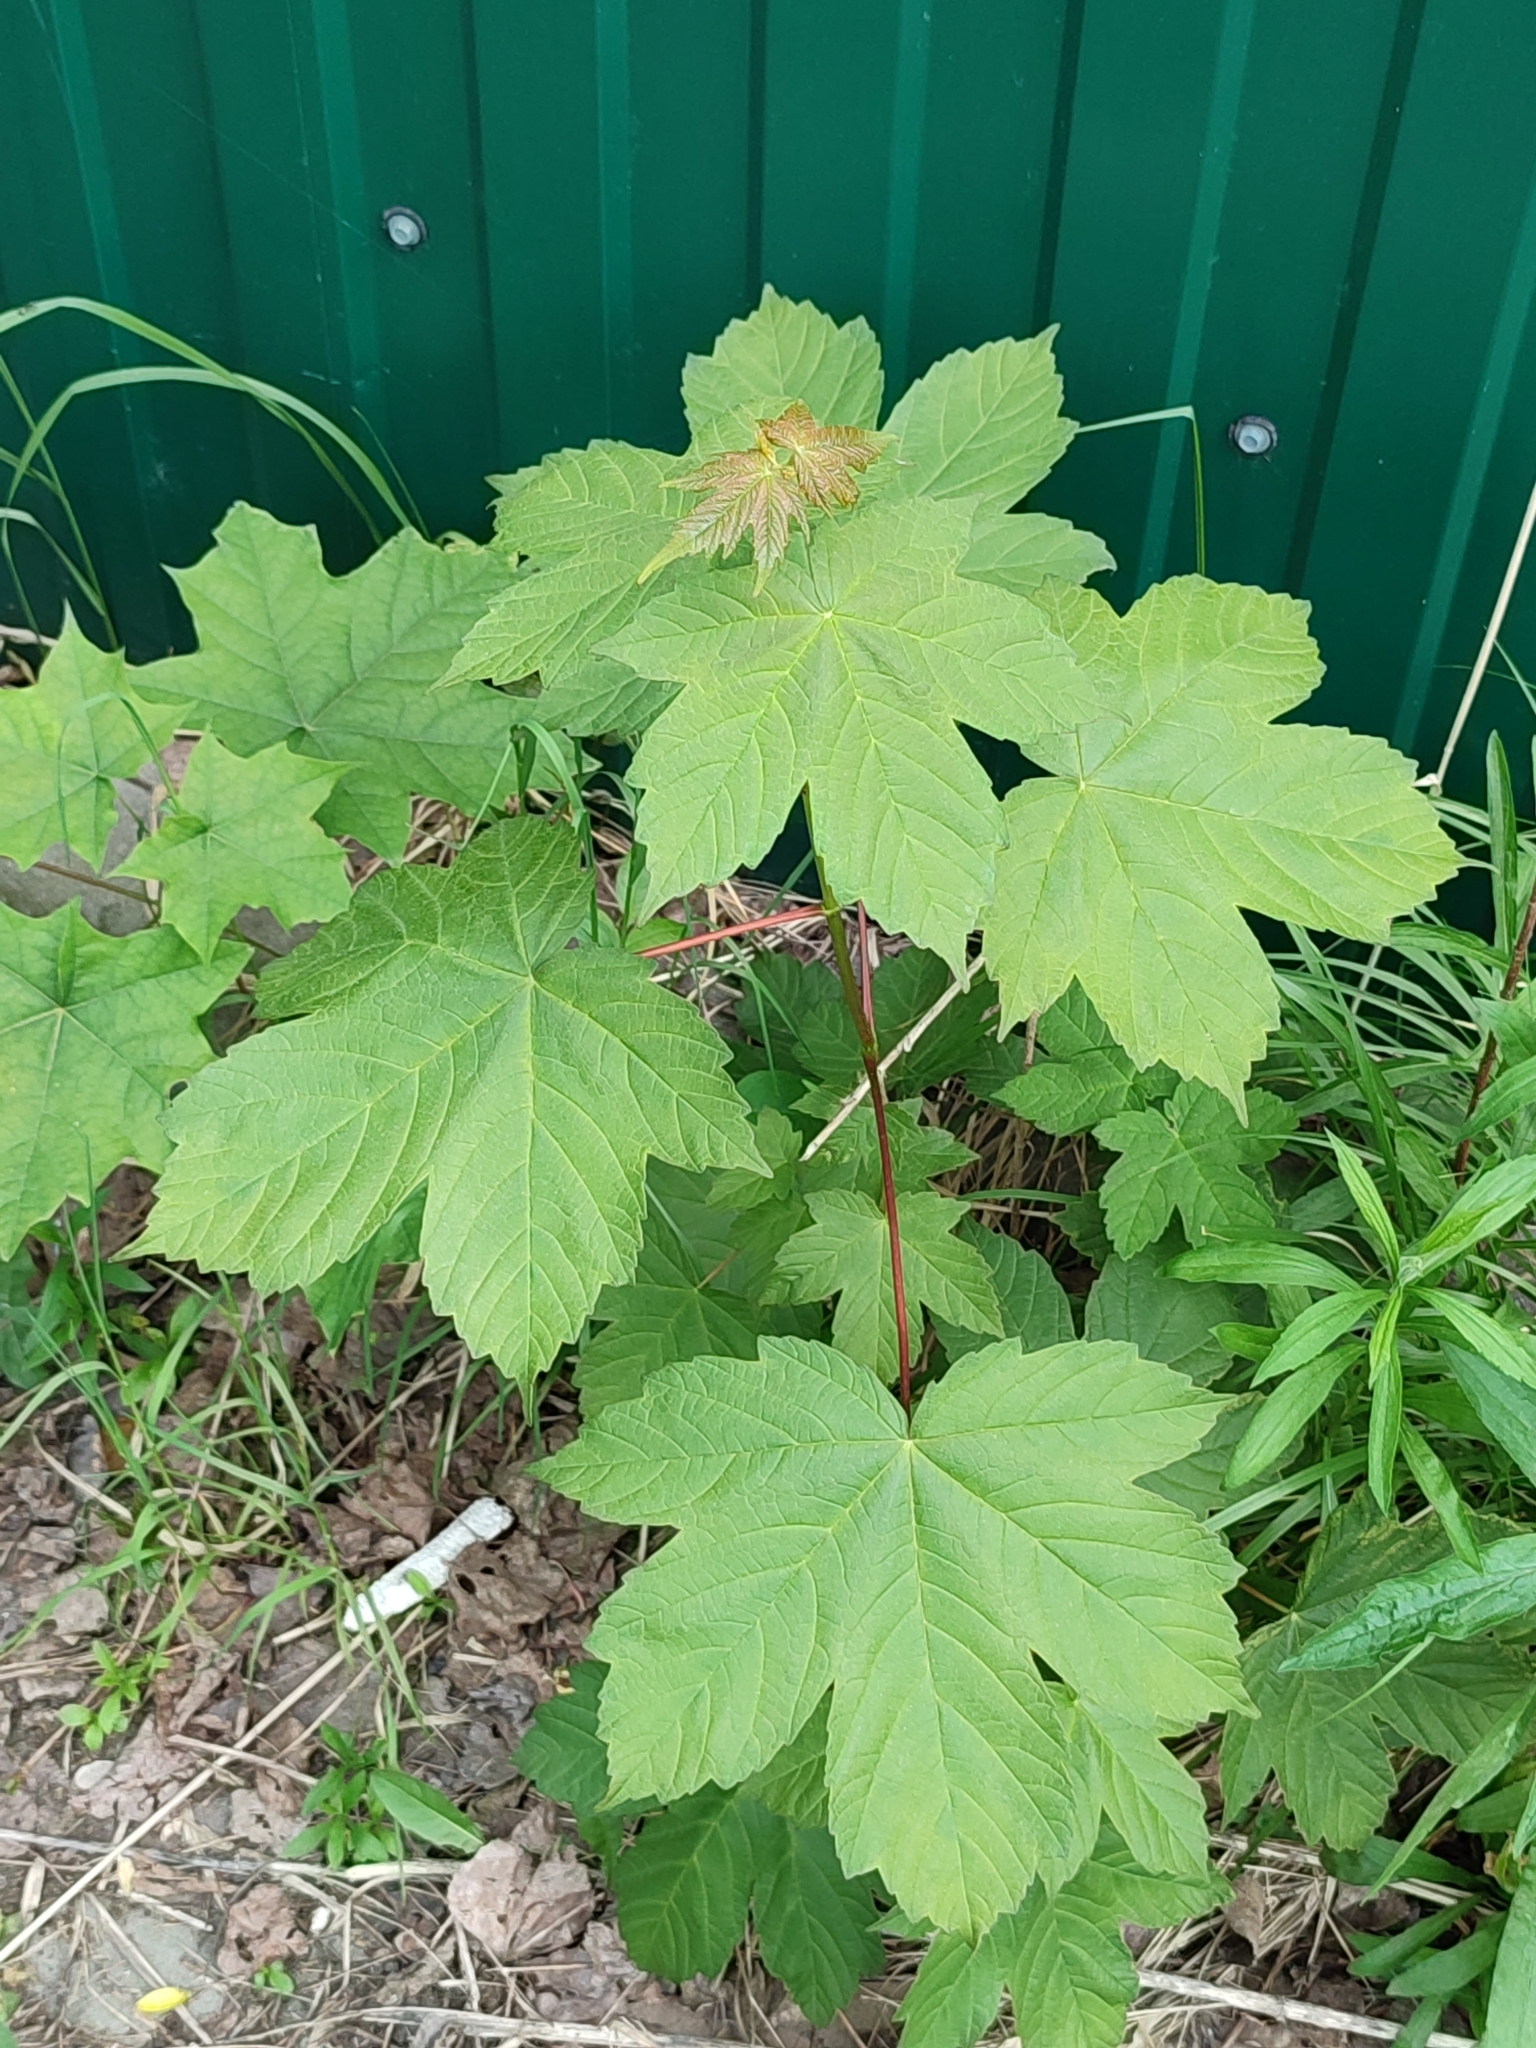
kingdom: Plantae
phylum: Tracheophyta
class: Magnoliopsida
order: Sapindales
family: Sapindaceae
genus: Acer
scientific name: Acer pseudoplatanus
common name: Sycamore
